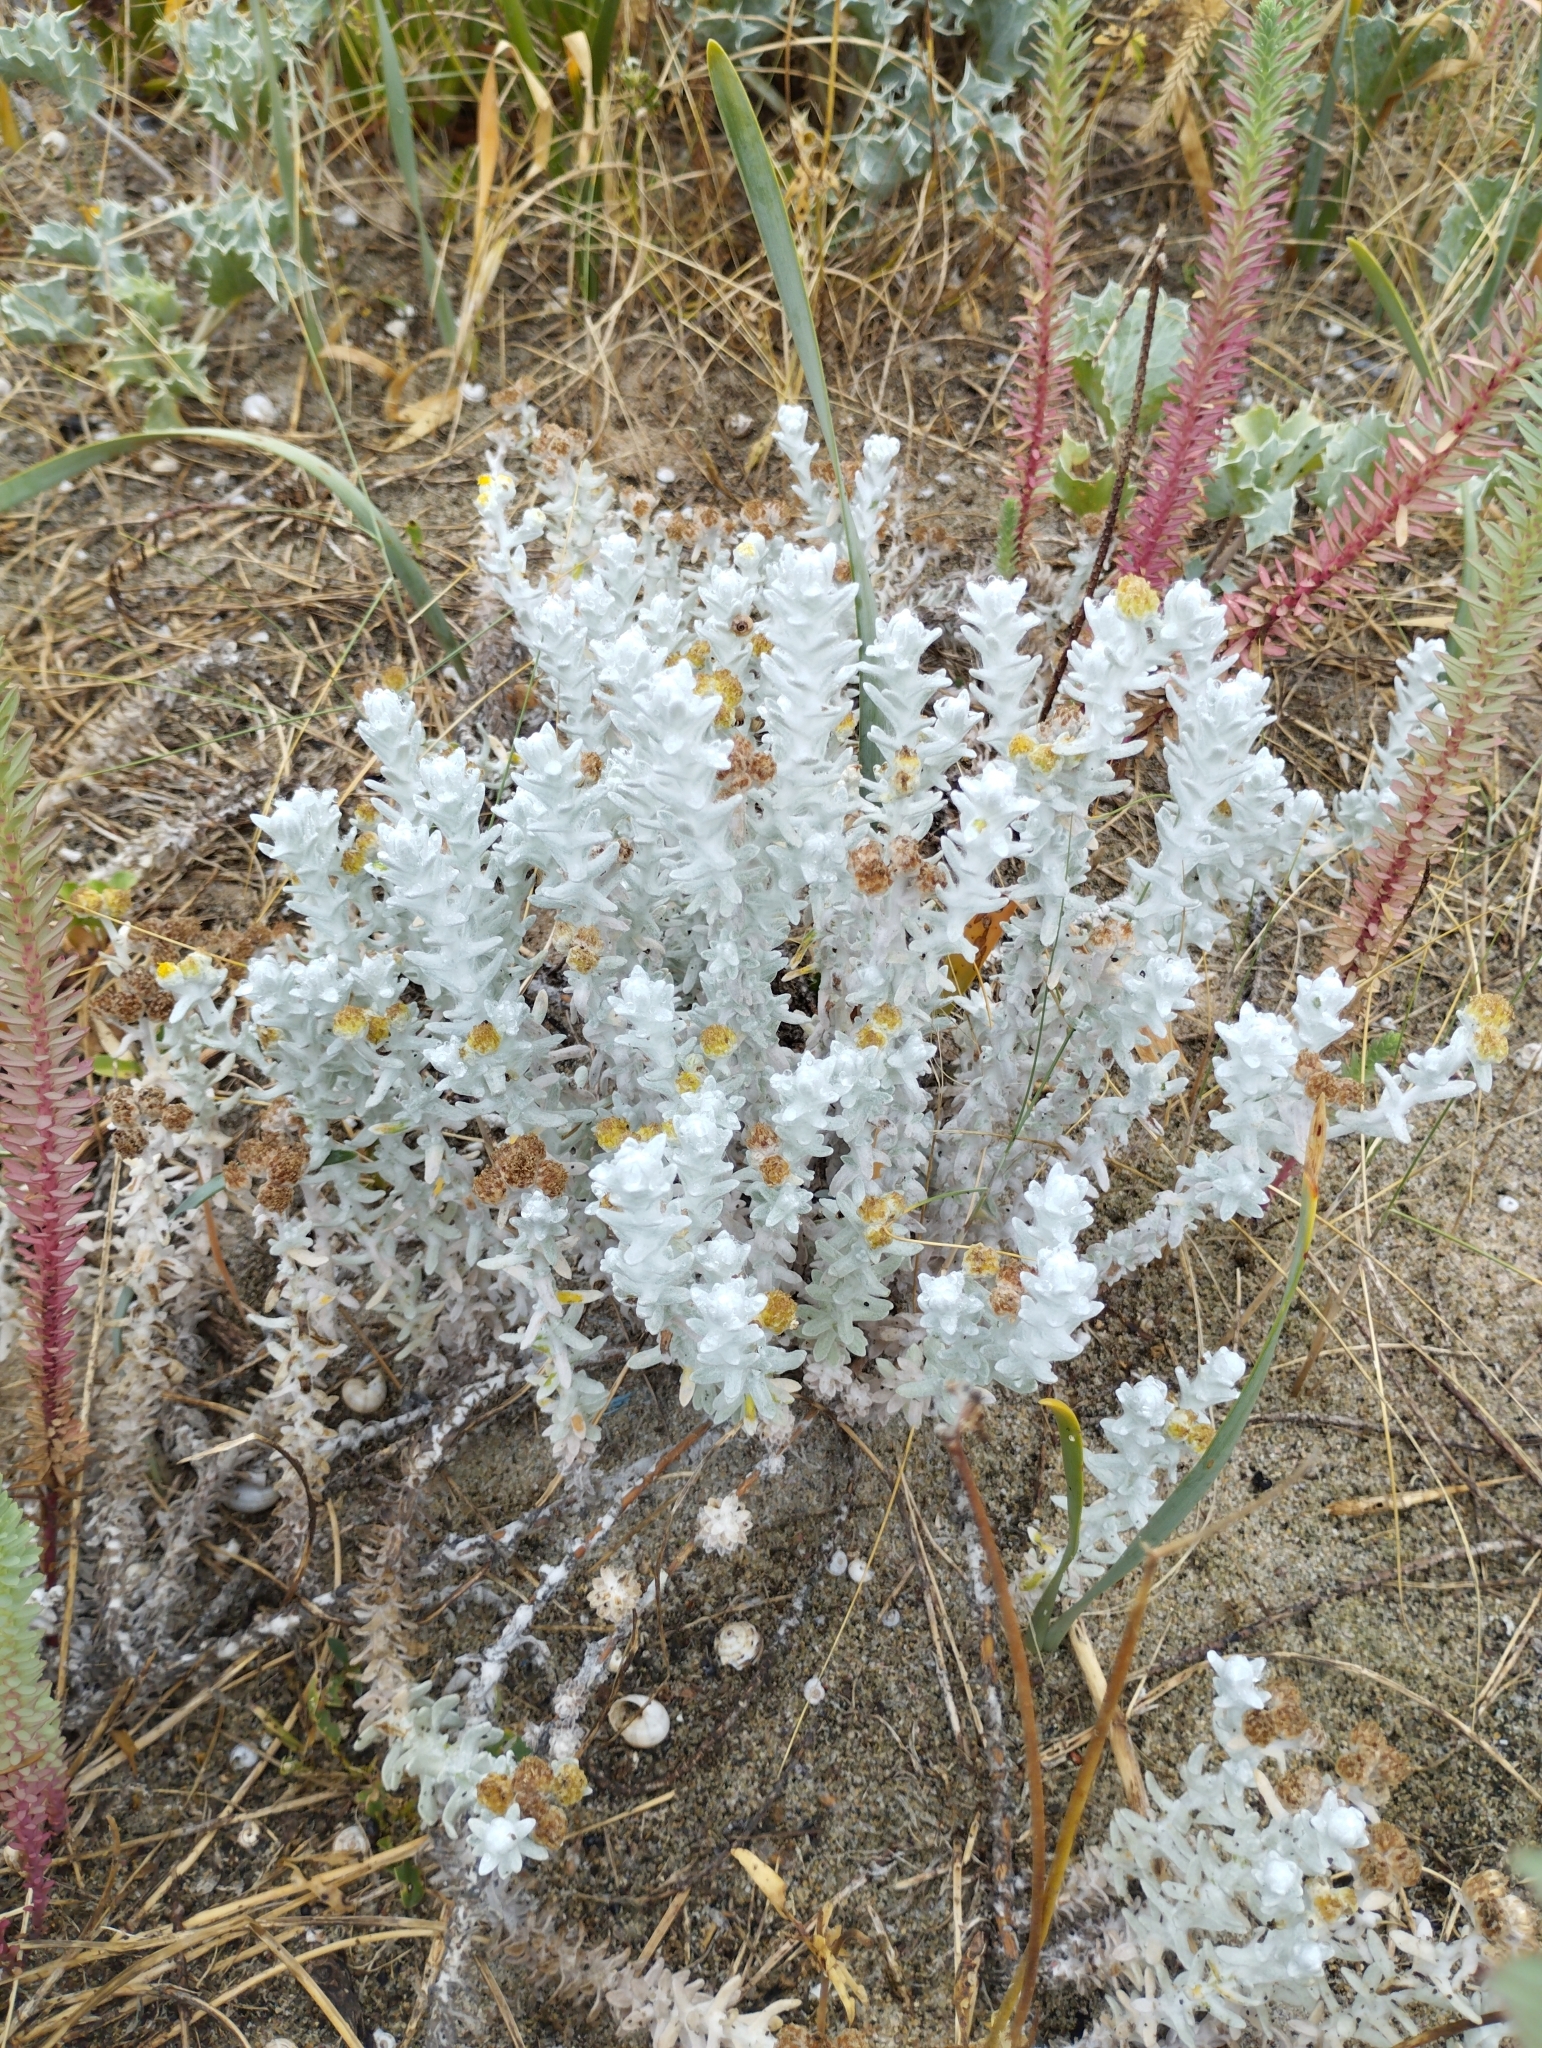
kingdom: Plantae
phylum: Tracheophyta
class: Magnoliopsida
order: Asterales
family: Asteraceae
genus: Achillea
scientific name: Achillea maritima
